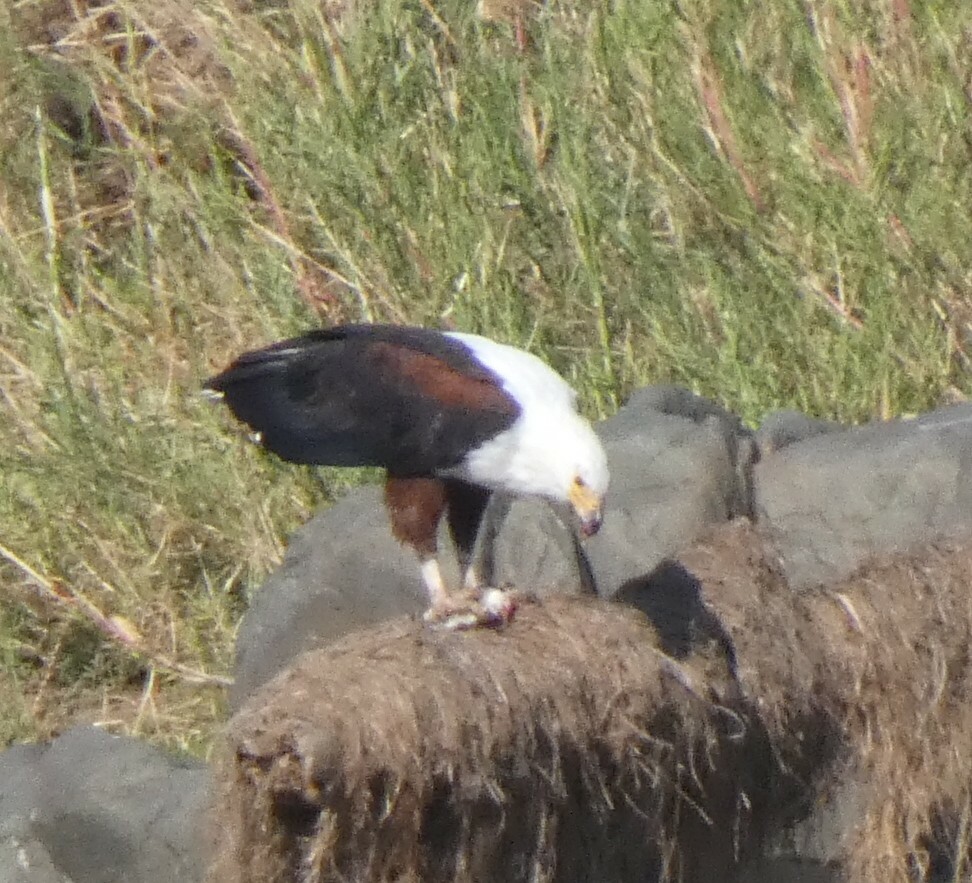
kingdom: Animalia
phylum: Chordata
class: Aves
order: Accipitriformes
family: Accipitridae
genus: Haliaeetus
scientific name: Haliaeetus vocifer
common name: African fish eagle
